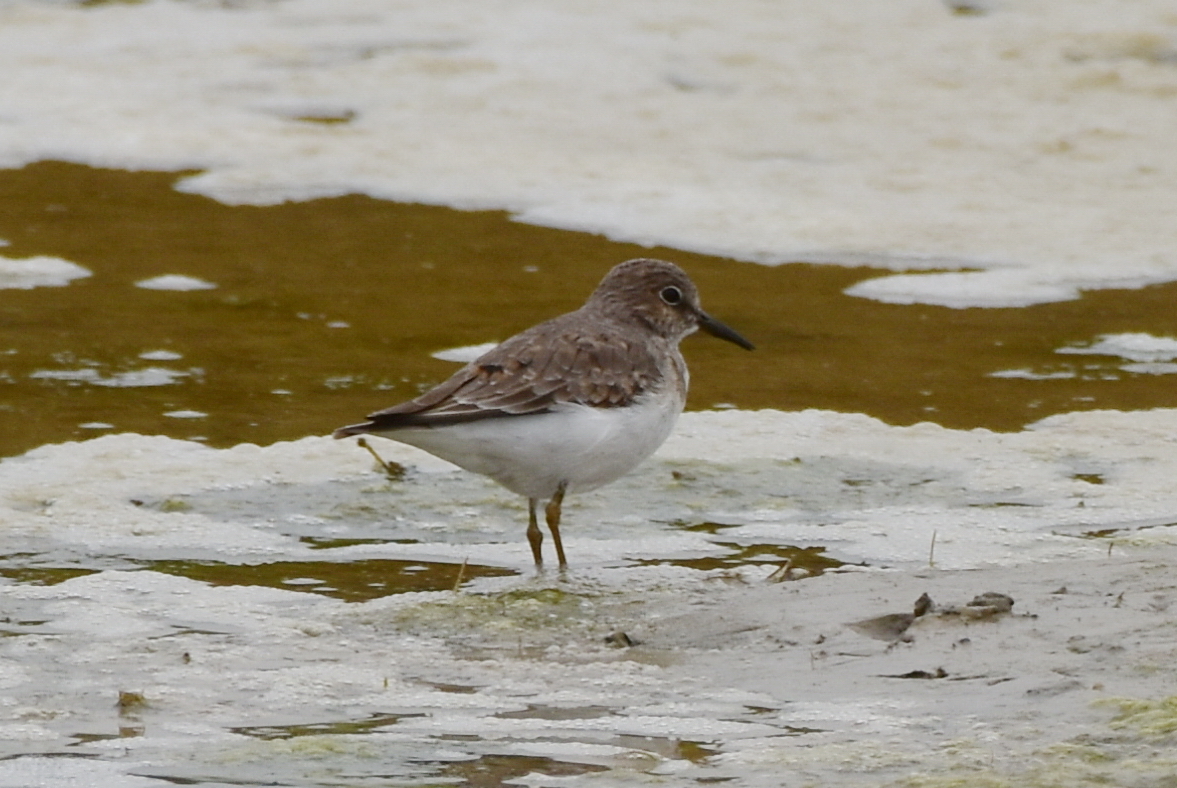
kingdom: Animalia
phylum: Chordata
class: Aves
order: Charadriiformes
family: Scolopacidae
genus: Calidris
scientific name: Calidris temminckii
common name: Temminck's stint
